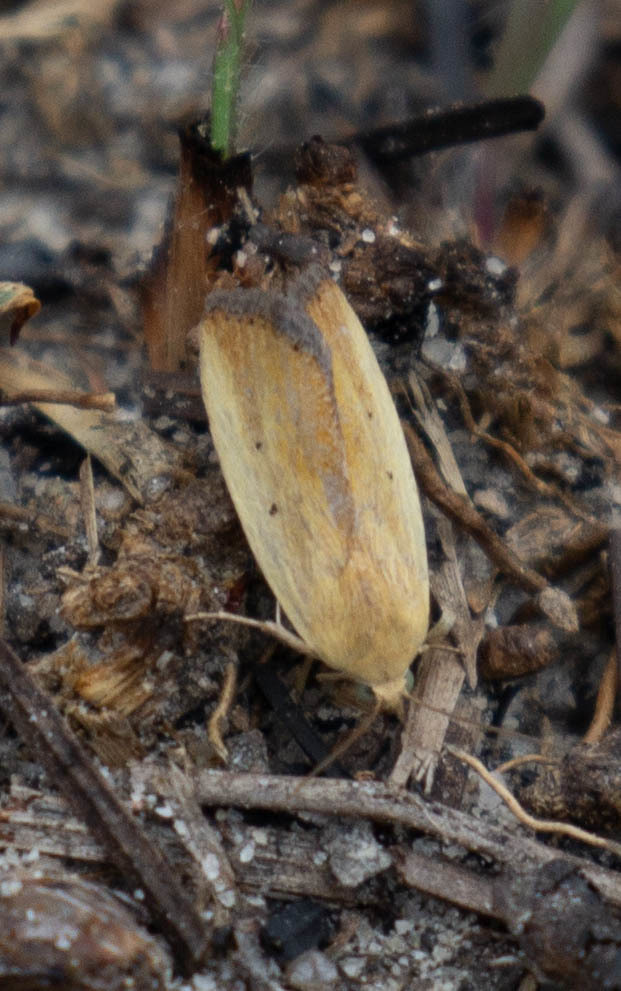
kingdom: Animalia
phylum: Arthropoda
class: Insecta
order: Lepidoptera
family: Noctuidae
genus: Marimatha
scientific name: Marimatha nigrofimbria
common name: Black-bordered lemon moth
